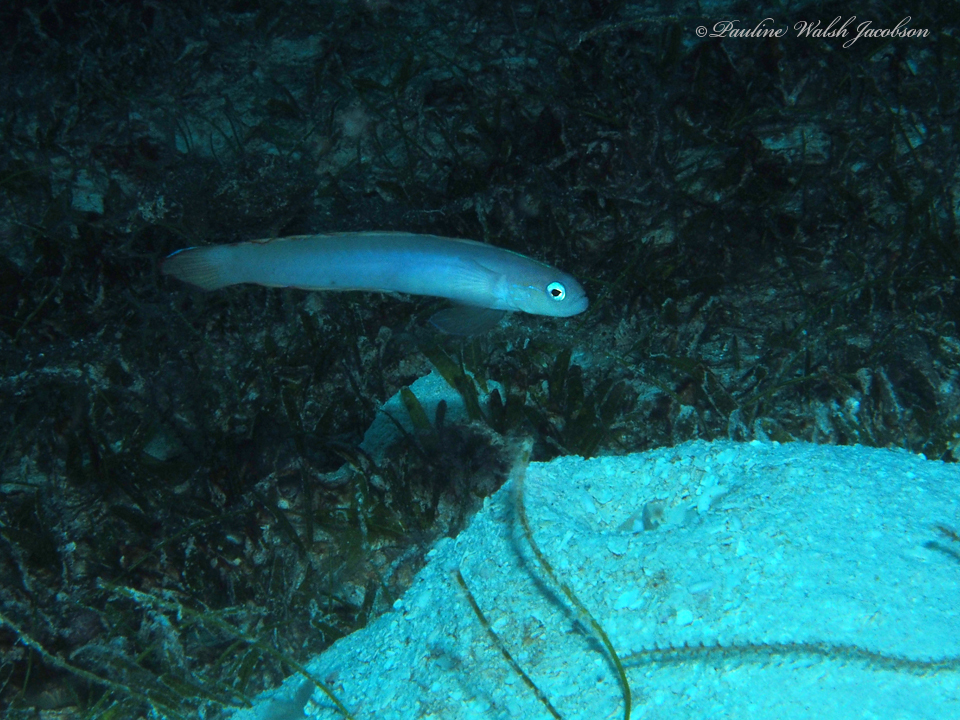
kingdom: Animalia
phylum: Chordata
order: Perciformes
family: Microdesmidae
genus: Ptereleotris
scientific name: Ptereleotris helenae
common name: Hovering goby
